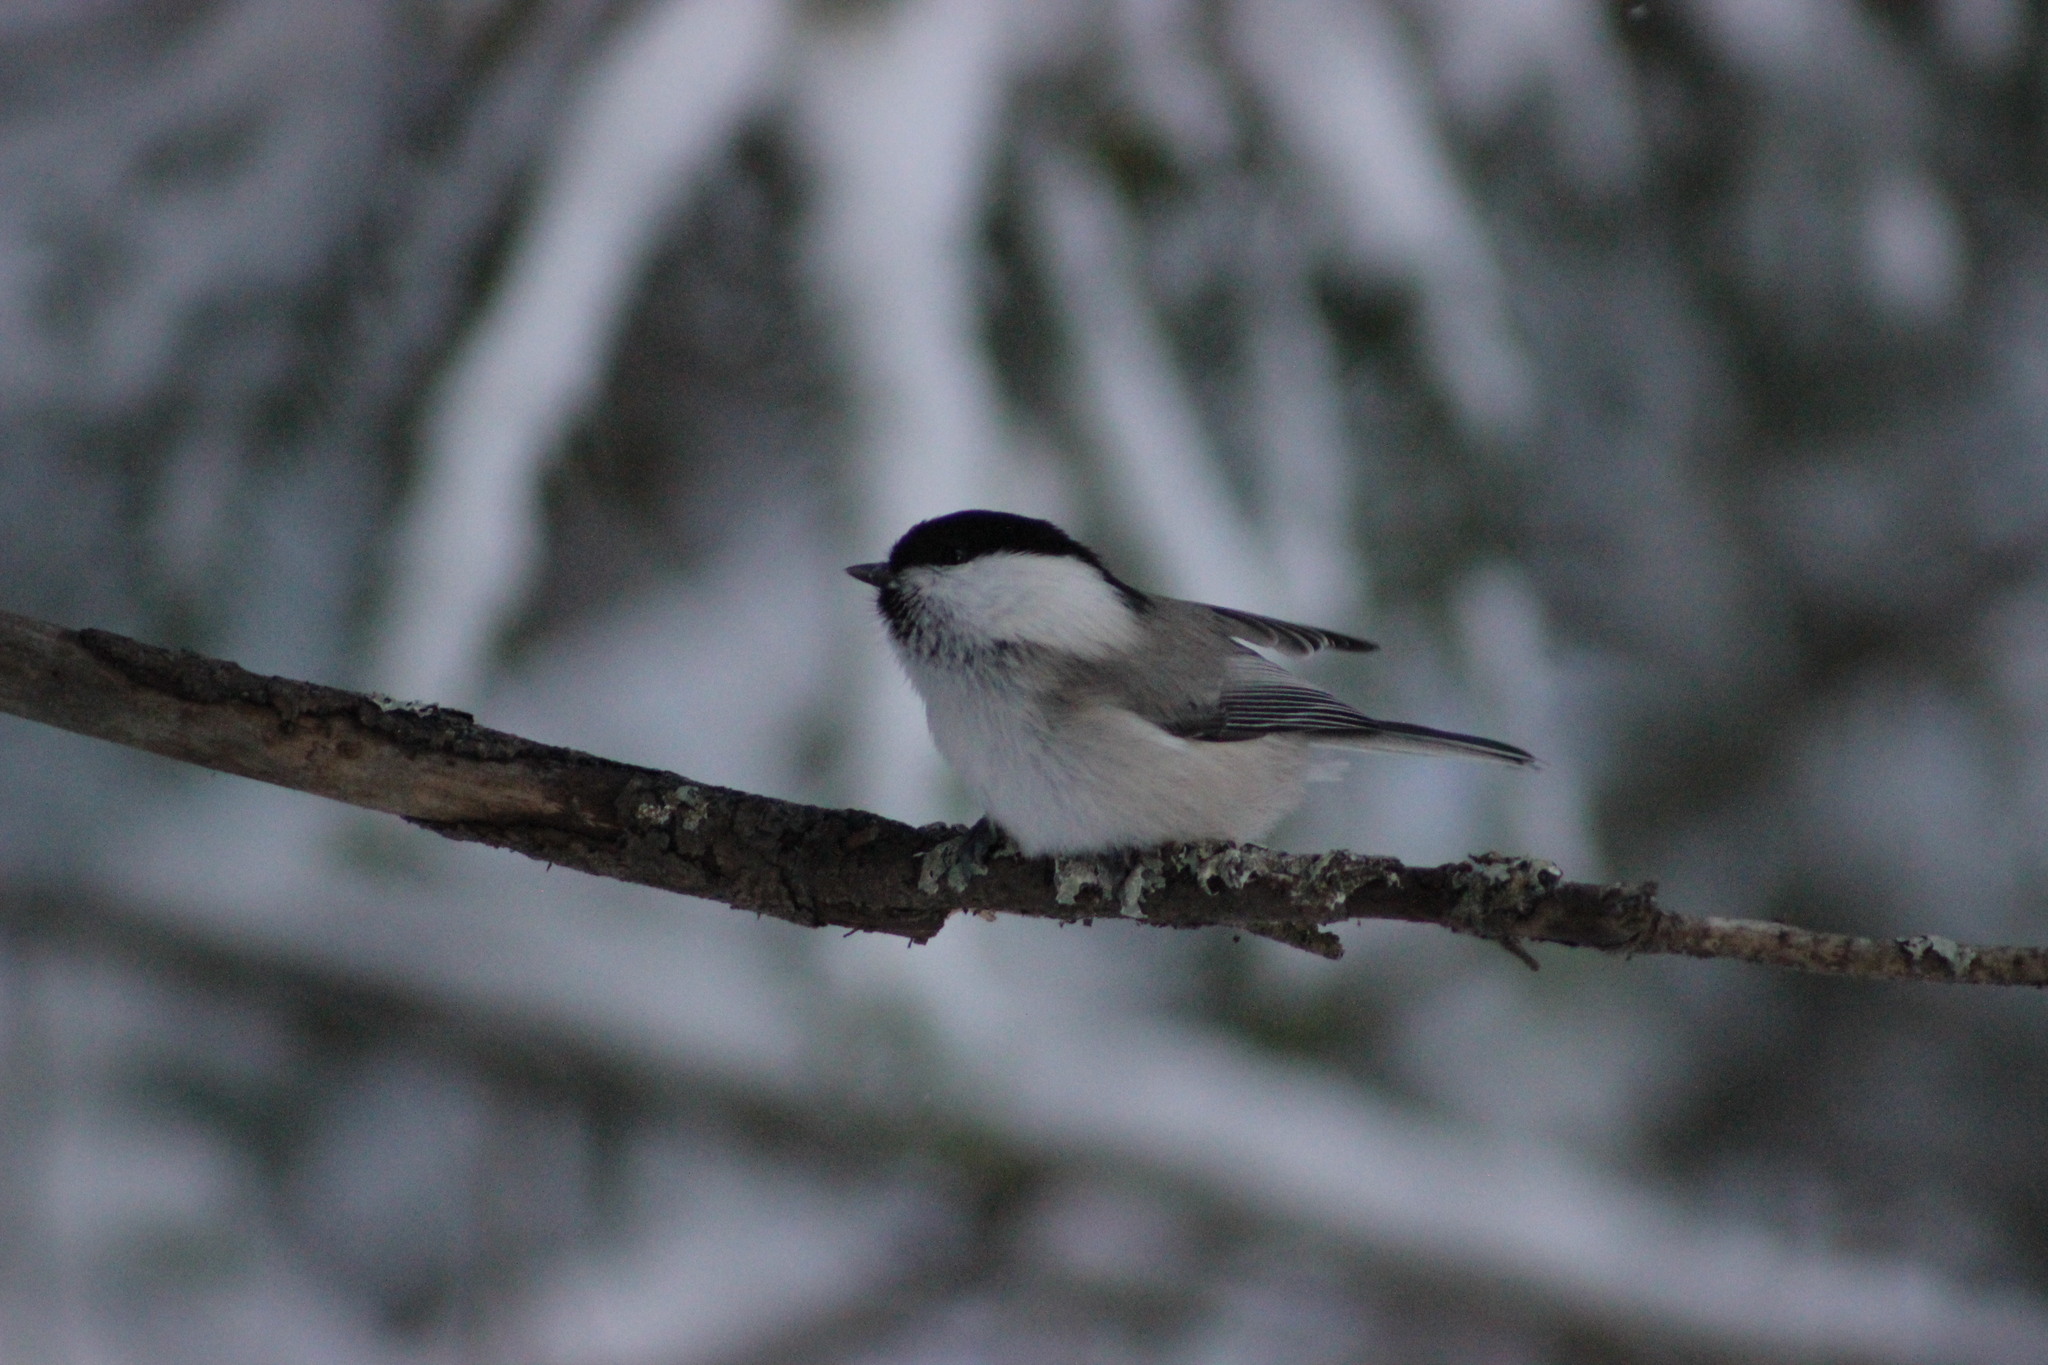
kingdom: Animalia
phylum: Chordata
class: Aves
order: Passeriformes
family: Paridae
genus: Poecile
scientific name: Poecile montanus
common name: Willow tit
